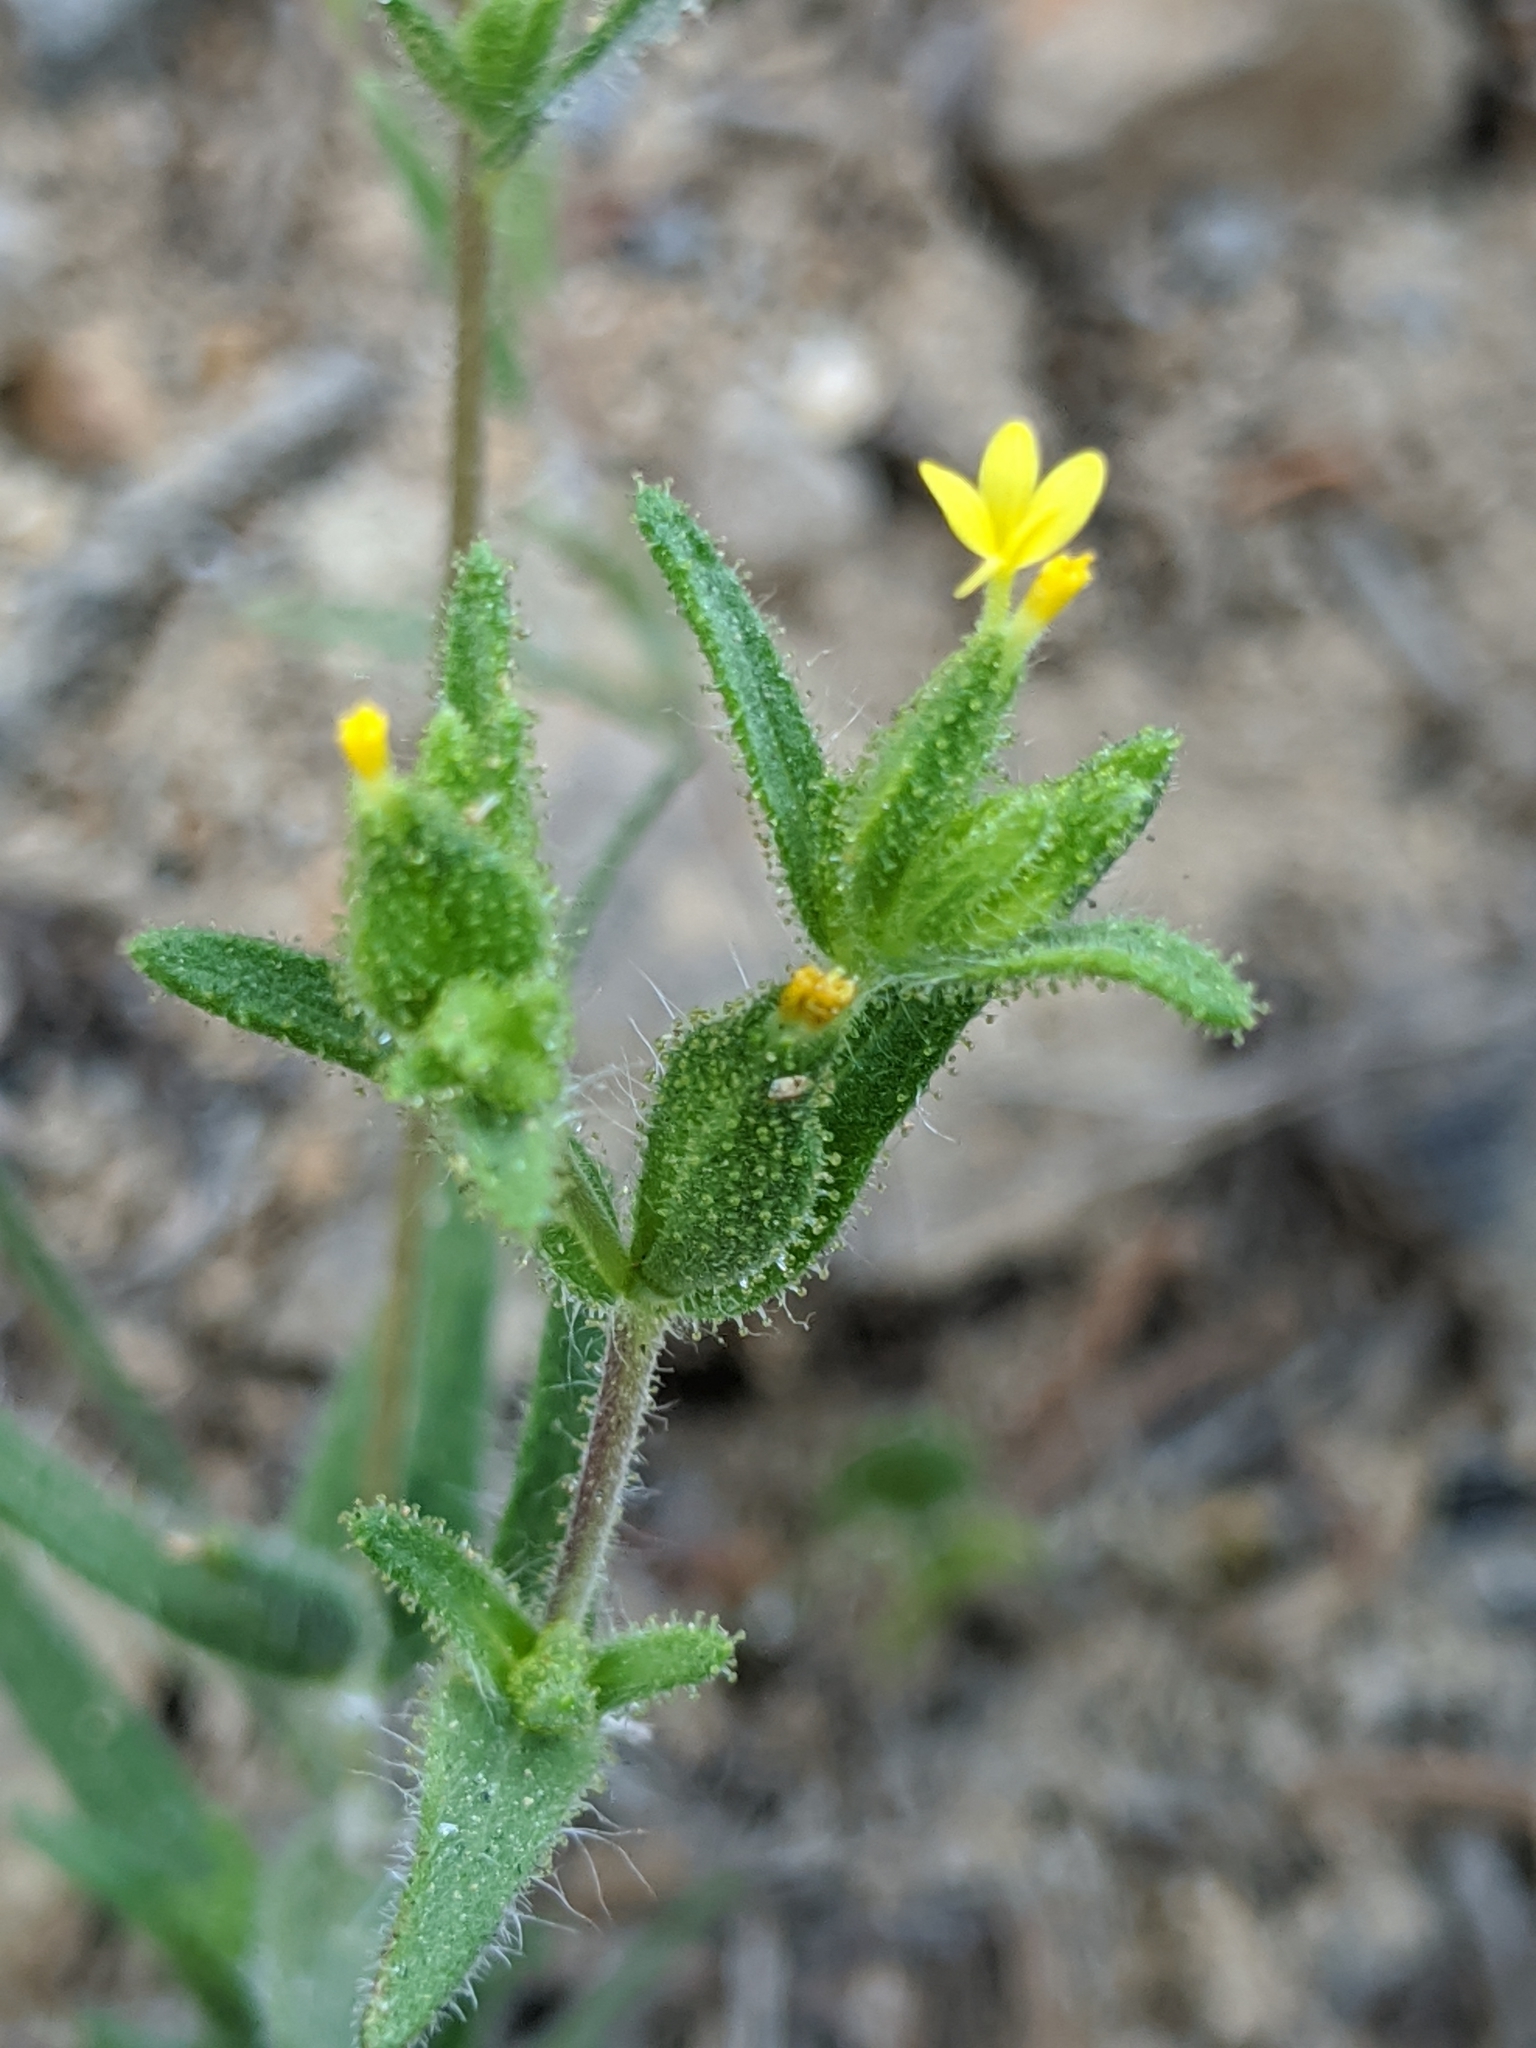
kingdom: Plantae
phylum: Tracheophyta
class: Magnoliopsida
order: Asterales
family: Asteraceae
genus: Madia
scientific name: Madia glomerata
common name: Mountain tarweed
